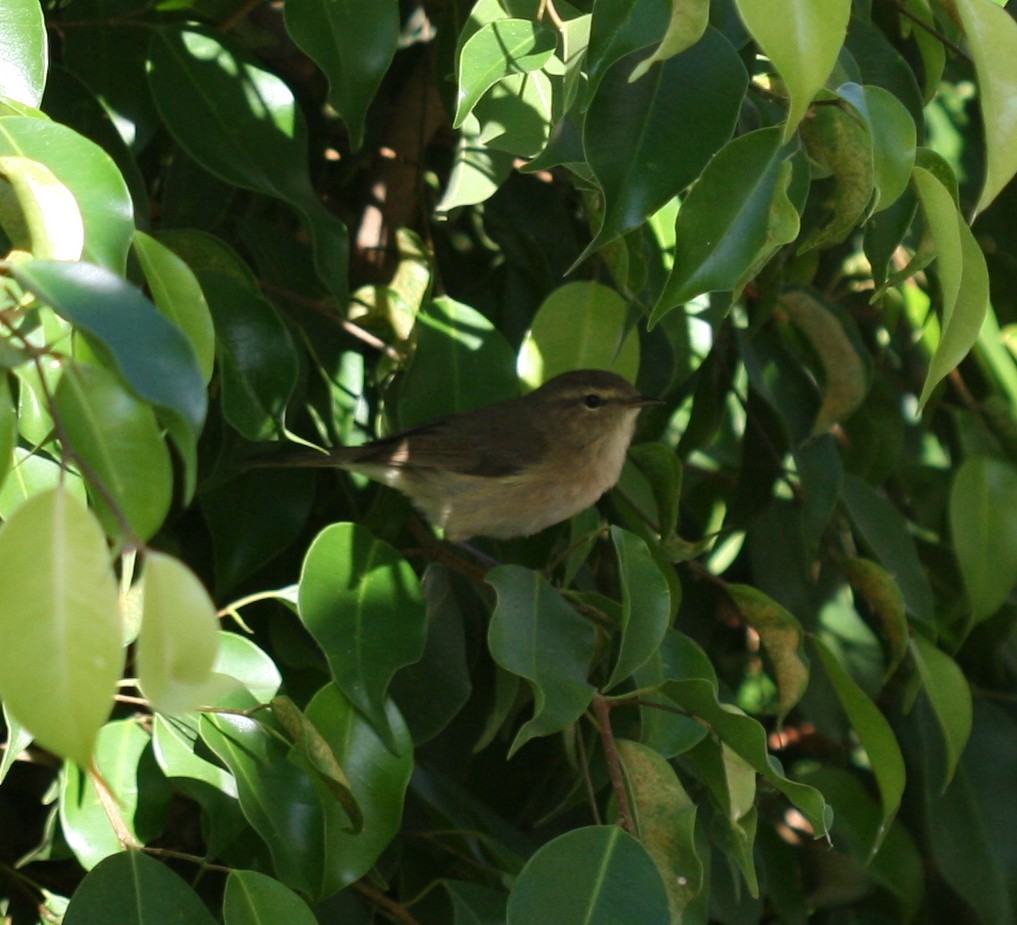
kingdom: Animalia
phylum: Chordata
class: Aves
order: Passeriformes
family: Phylloscopidae
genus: Phylloscopus
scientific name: Phylloscopus canariensis
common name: Canary islands chiffchaff
